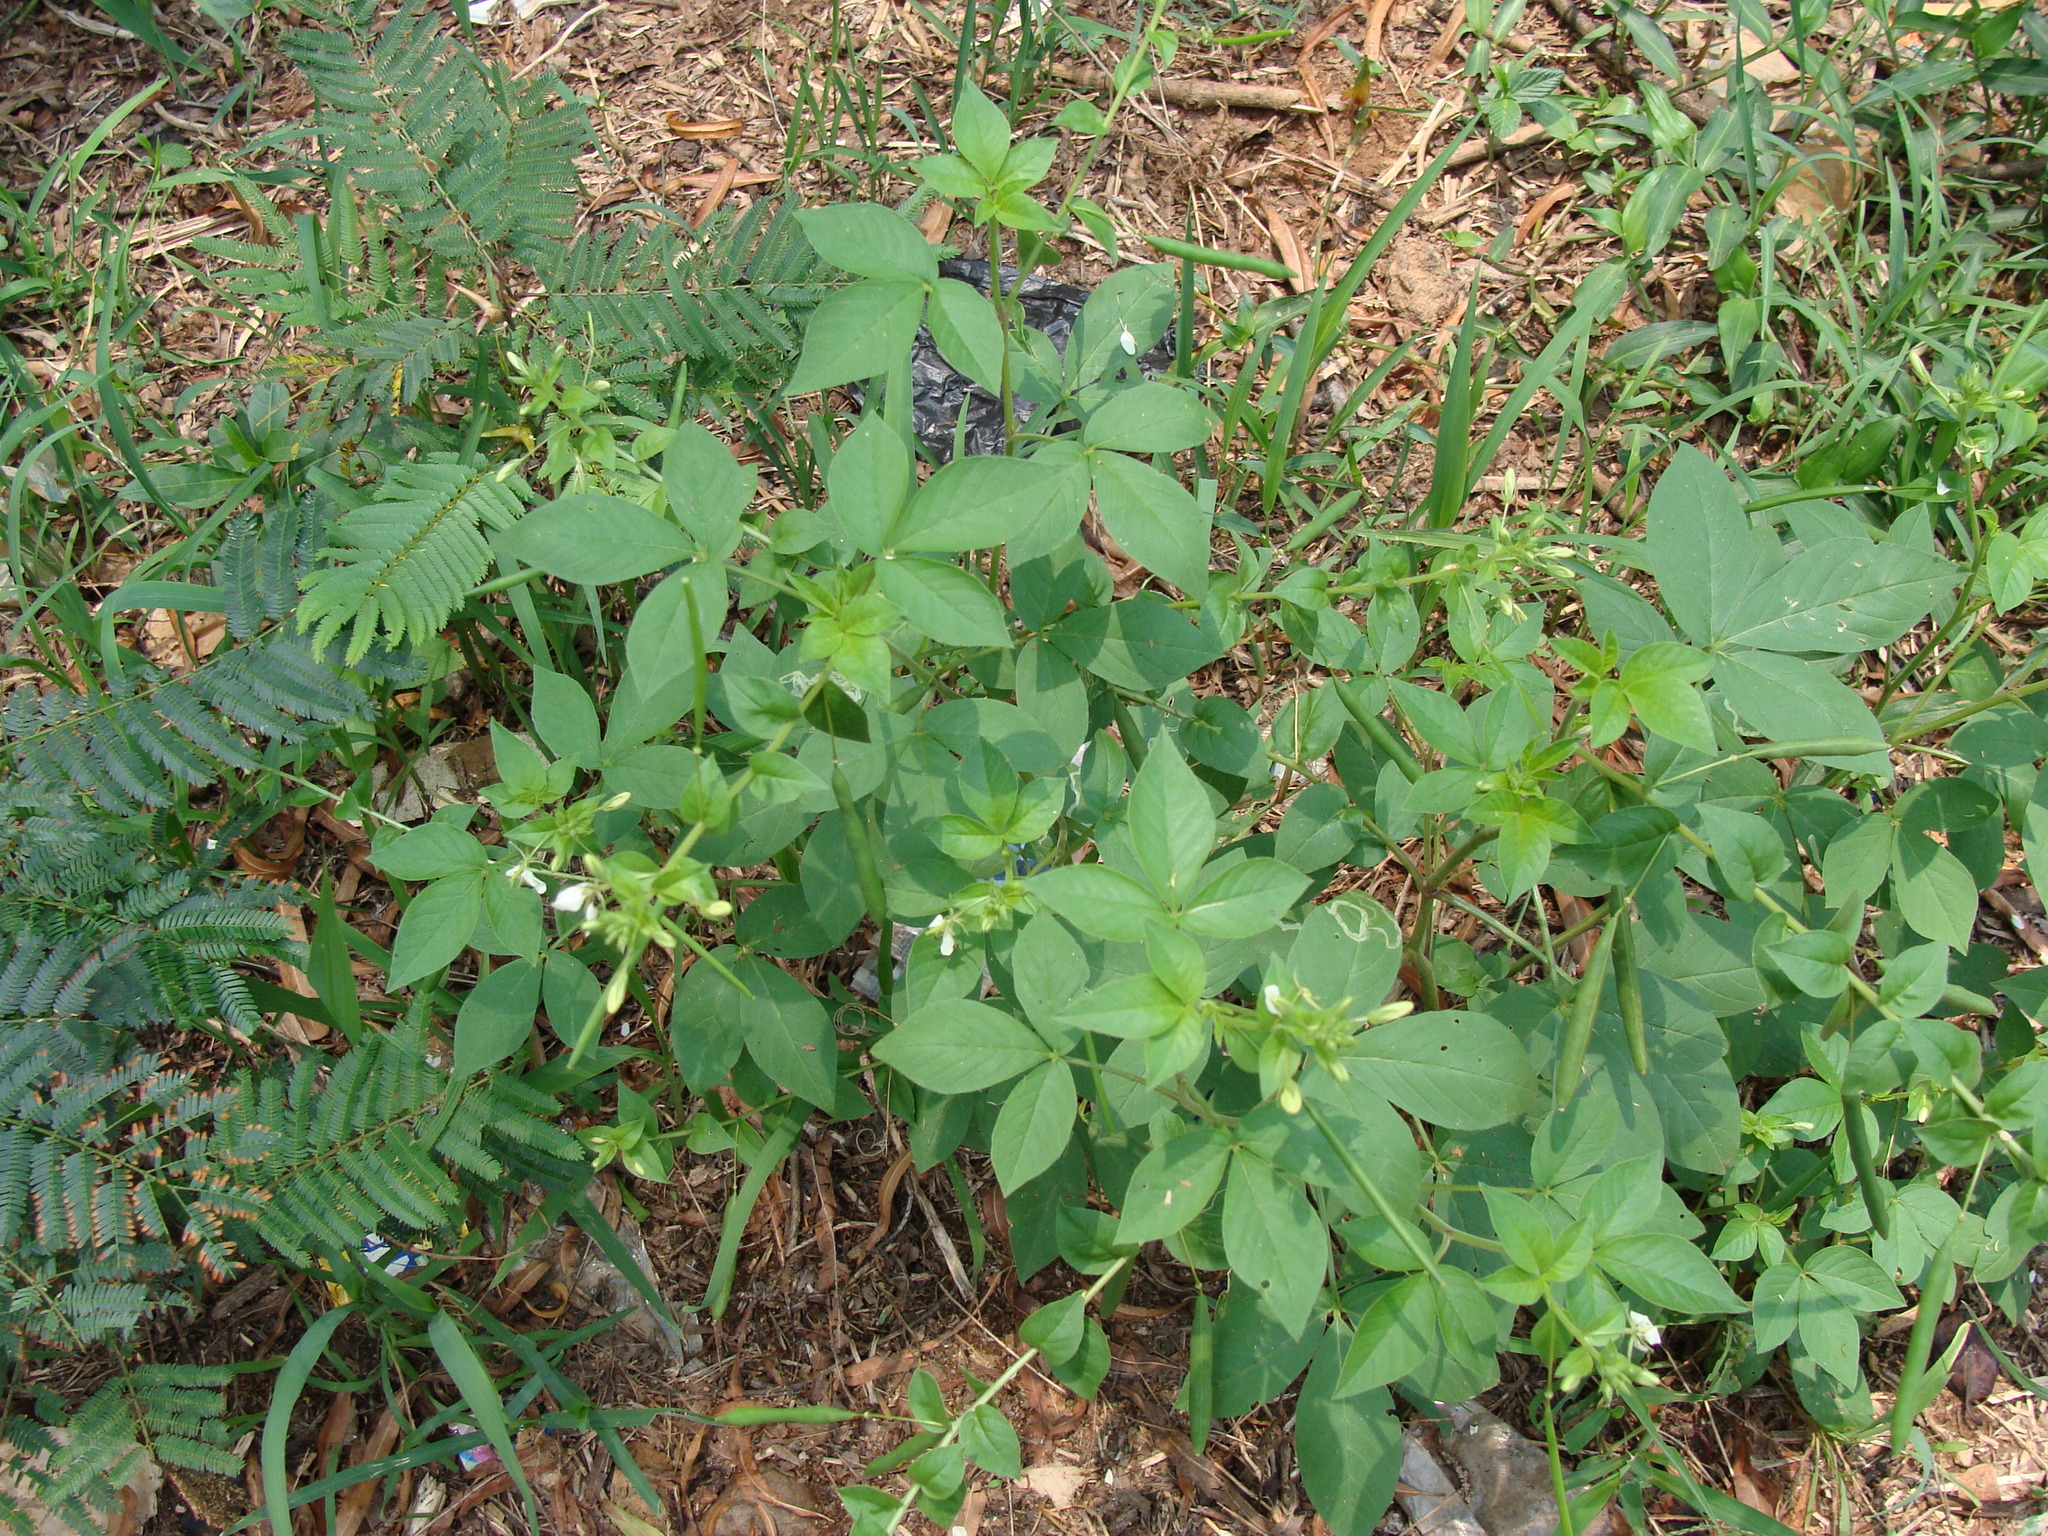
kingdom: Plantae
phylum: Tracheophyta
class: Magnoliopsida
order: Brassicales
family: Cleomaceae
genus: Cleoserrata
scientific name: Cleoserrata serrata
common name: Toothed spiderflower
